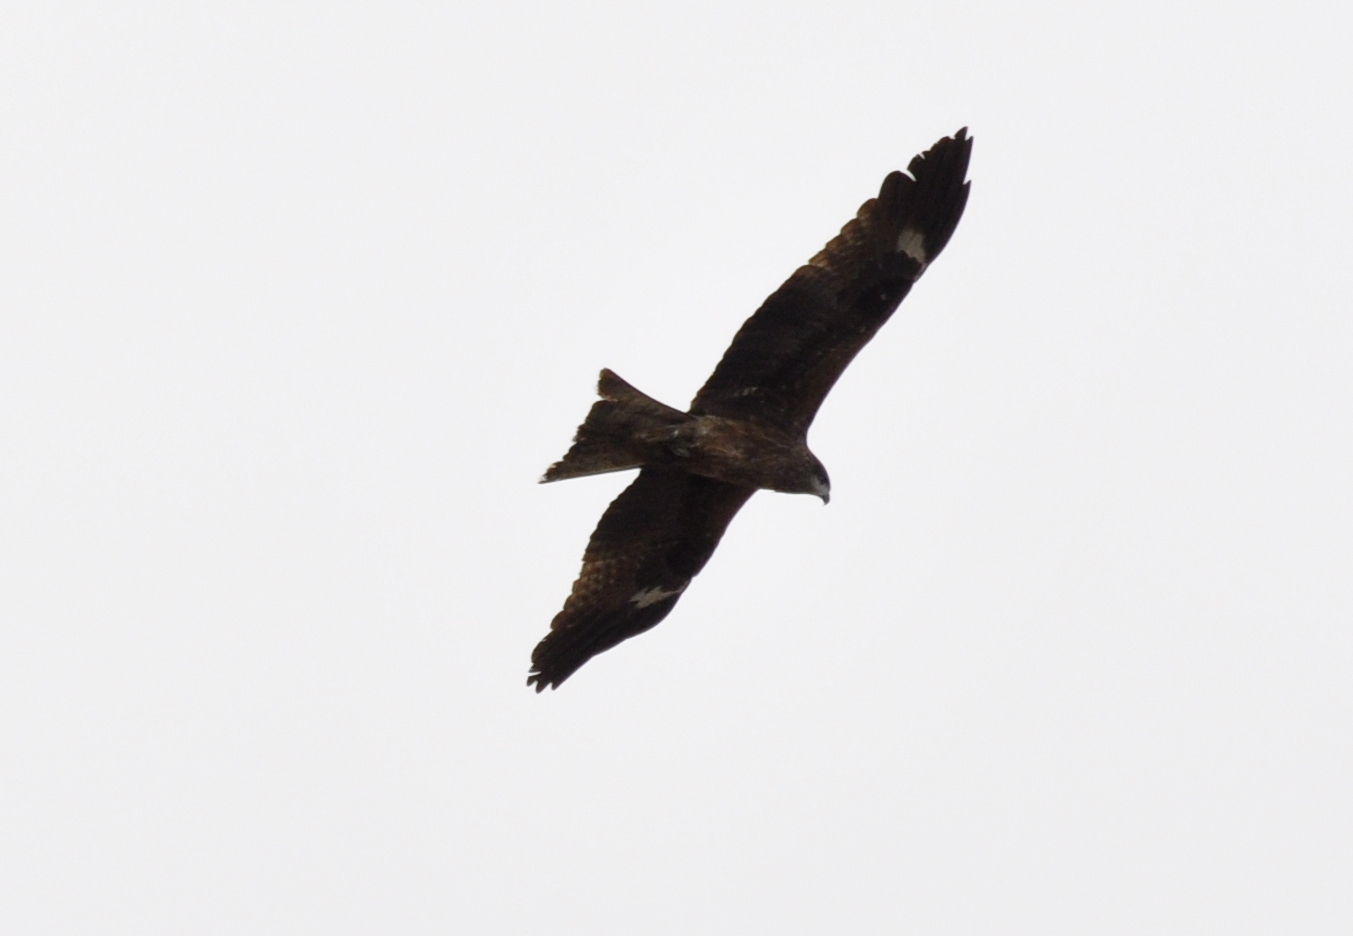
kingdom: Animalia
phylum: Chordata
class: Aves
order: Accipitriformes
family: Accipitridae
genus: Milvus
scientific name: Milvus migrans
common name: Black kite
